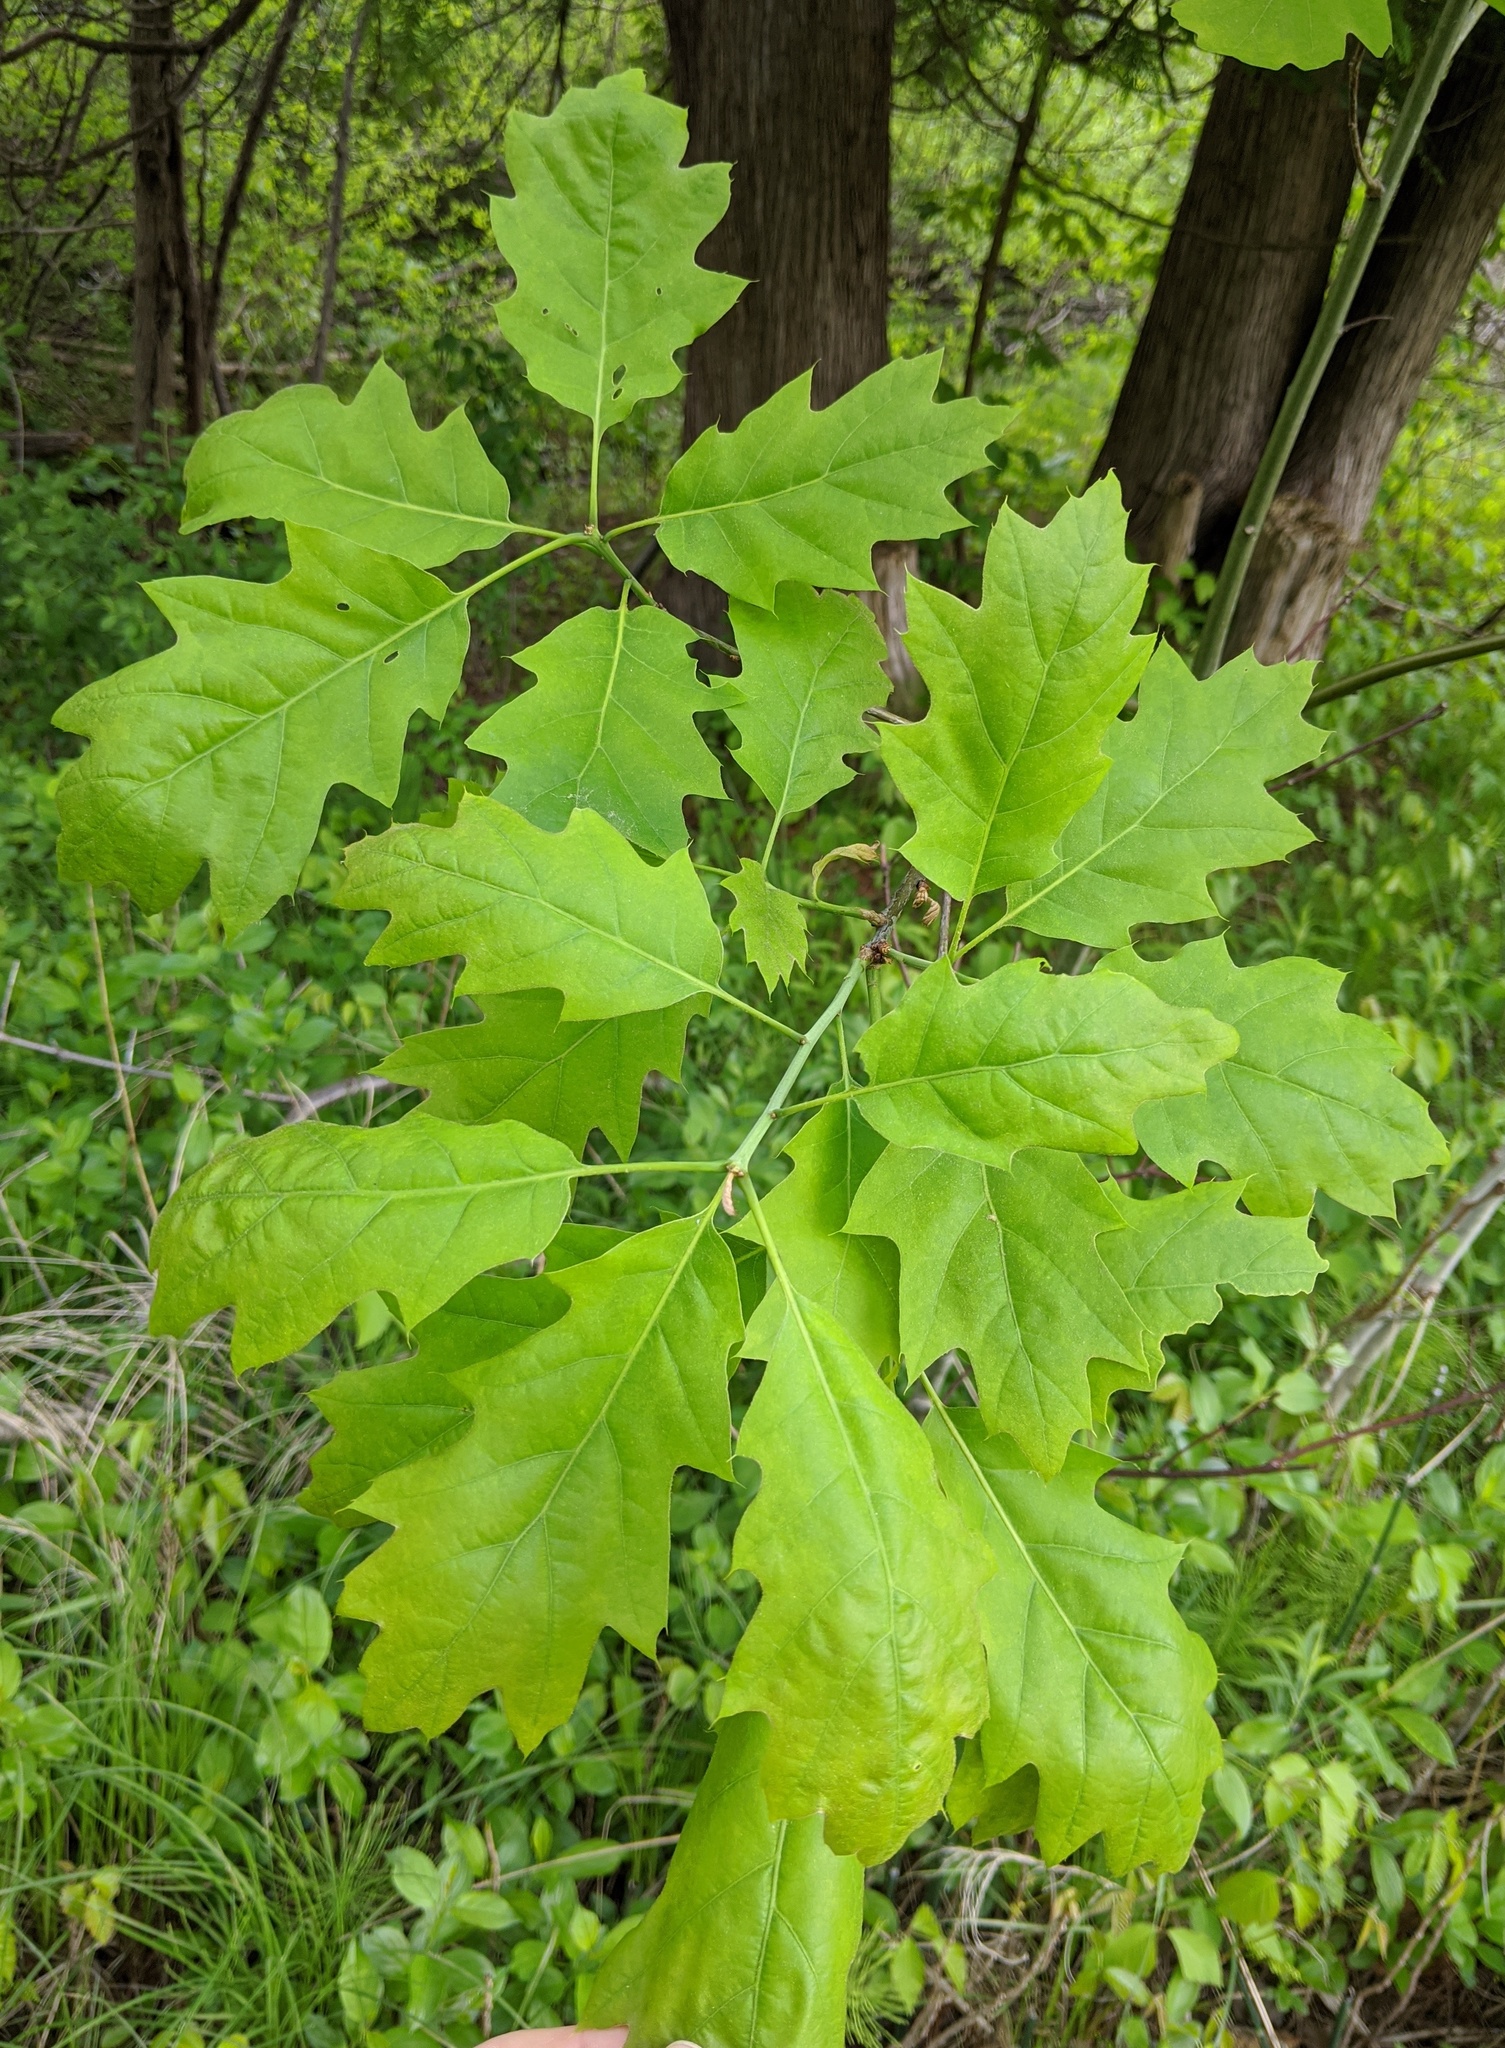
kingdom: Plantae
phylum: Tracheophyta
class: Magnoliopsida
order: Fagales
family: Fagaceae
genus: Quercus
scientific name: Quercus rubra
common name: Red oak
